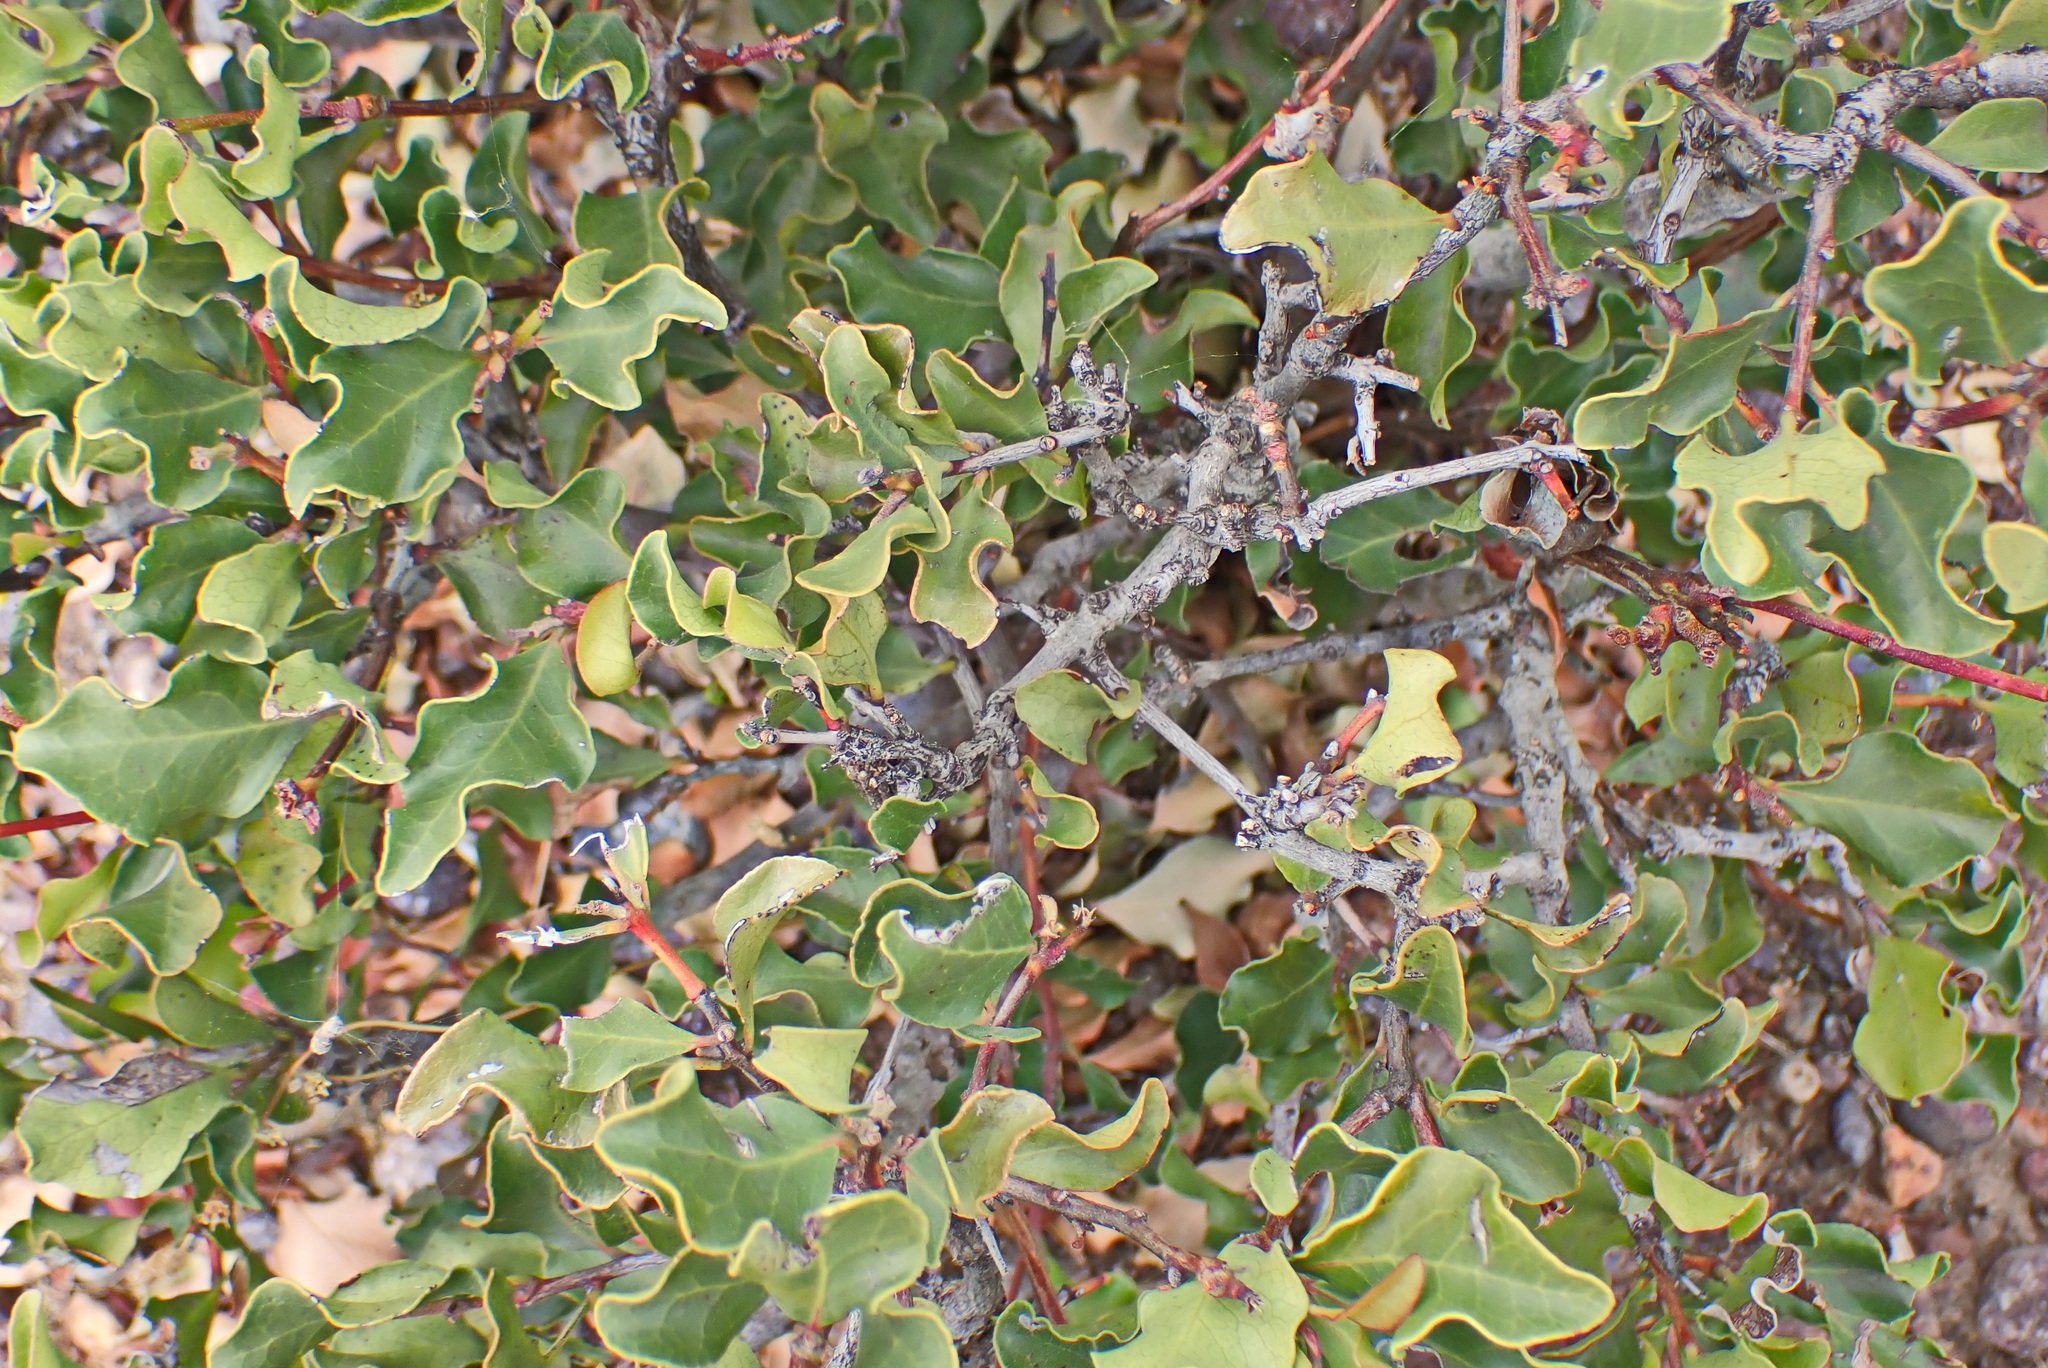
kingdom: Plantae
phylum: Tracheophyta
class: Magnoliopsida
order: Ericales
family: Ebenaceae
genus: Euclea
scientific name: Euclea undulata
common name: Small-leaved guarri
